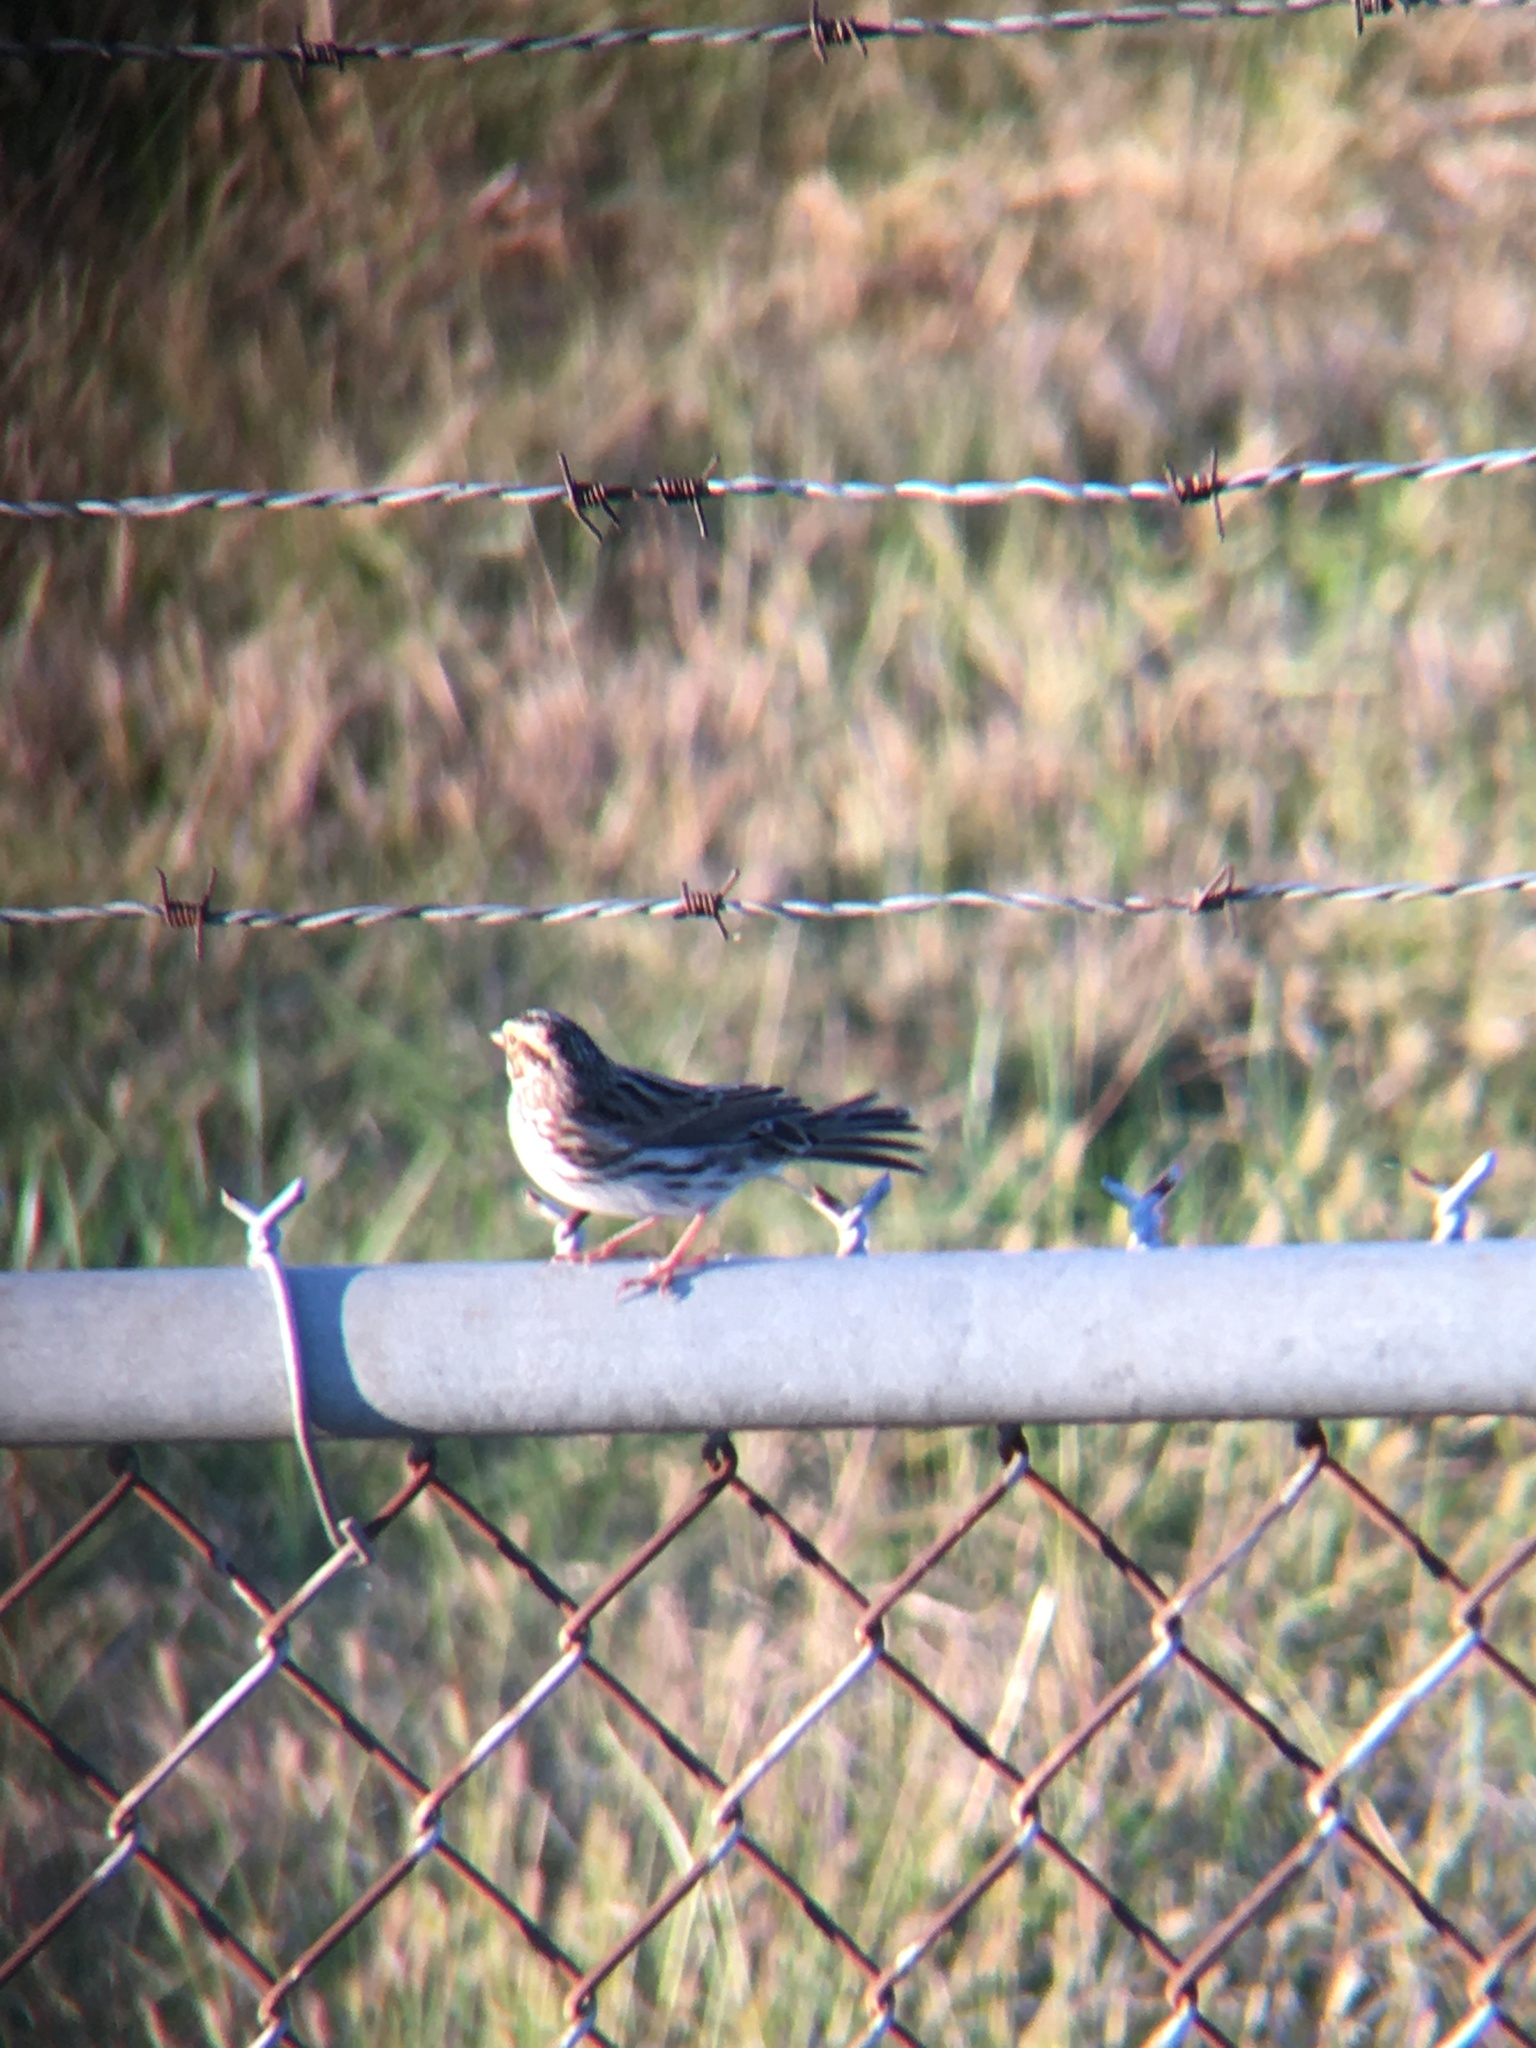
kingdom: Animalia
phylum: Chordata
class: Aves
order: Passeriformes
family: Passerellidae
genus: Passerculus
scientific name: Passerculus sandwichensis
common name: Savannah sparrow
